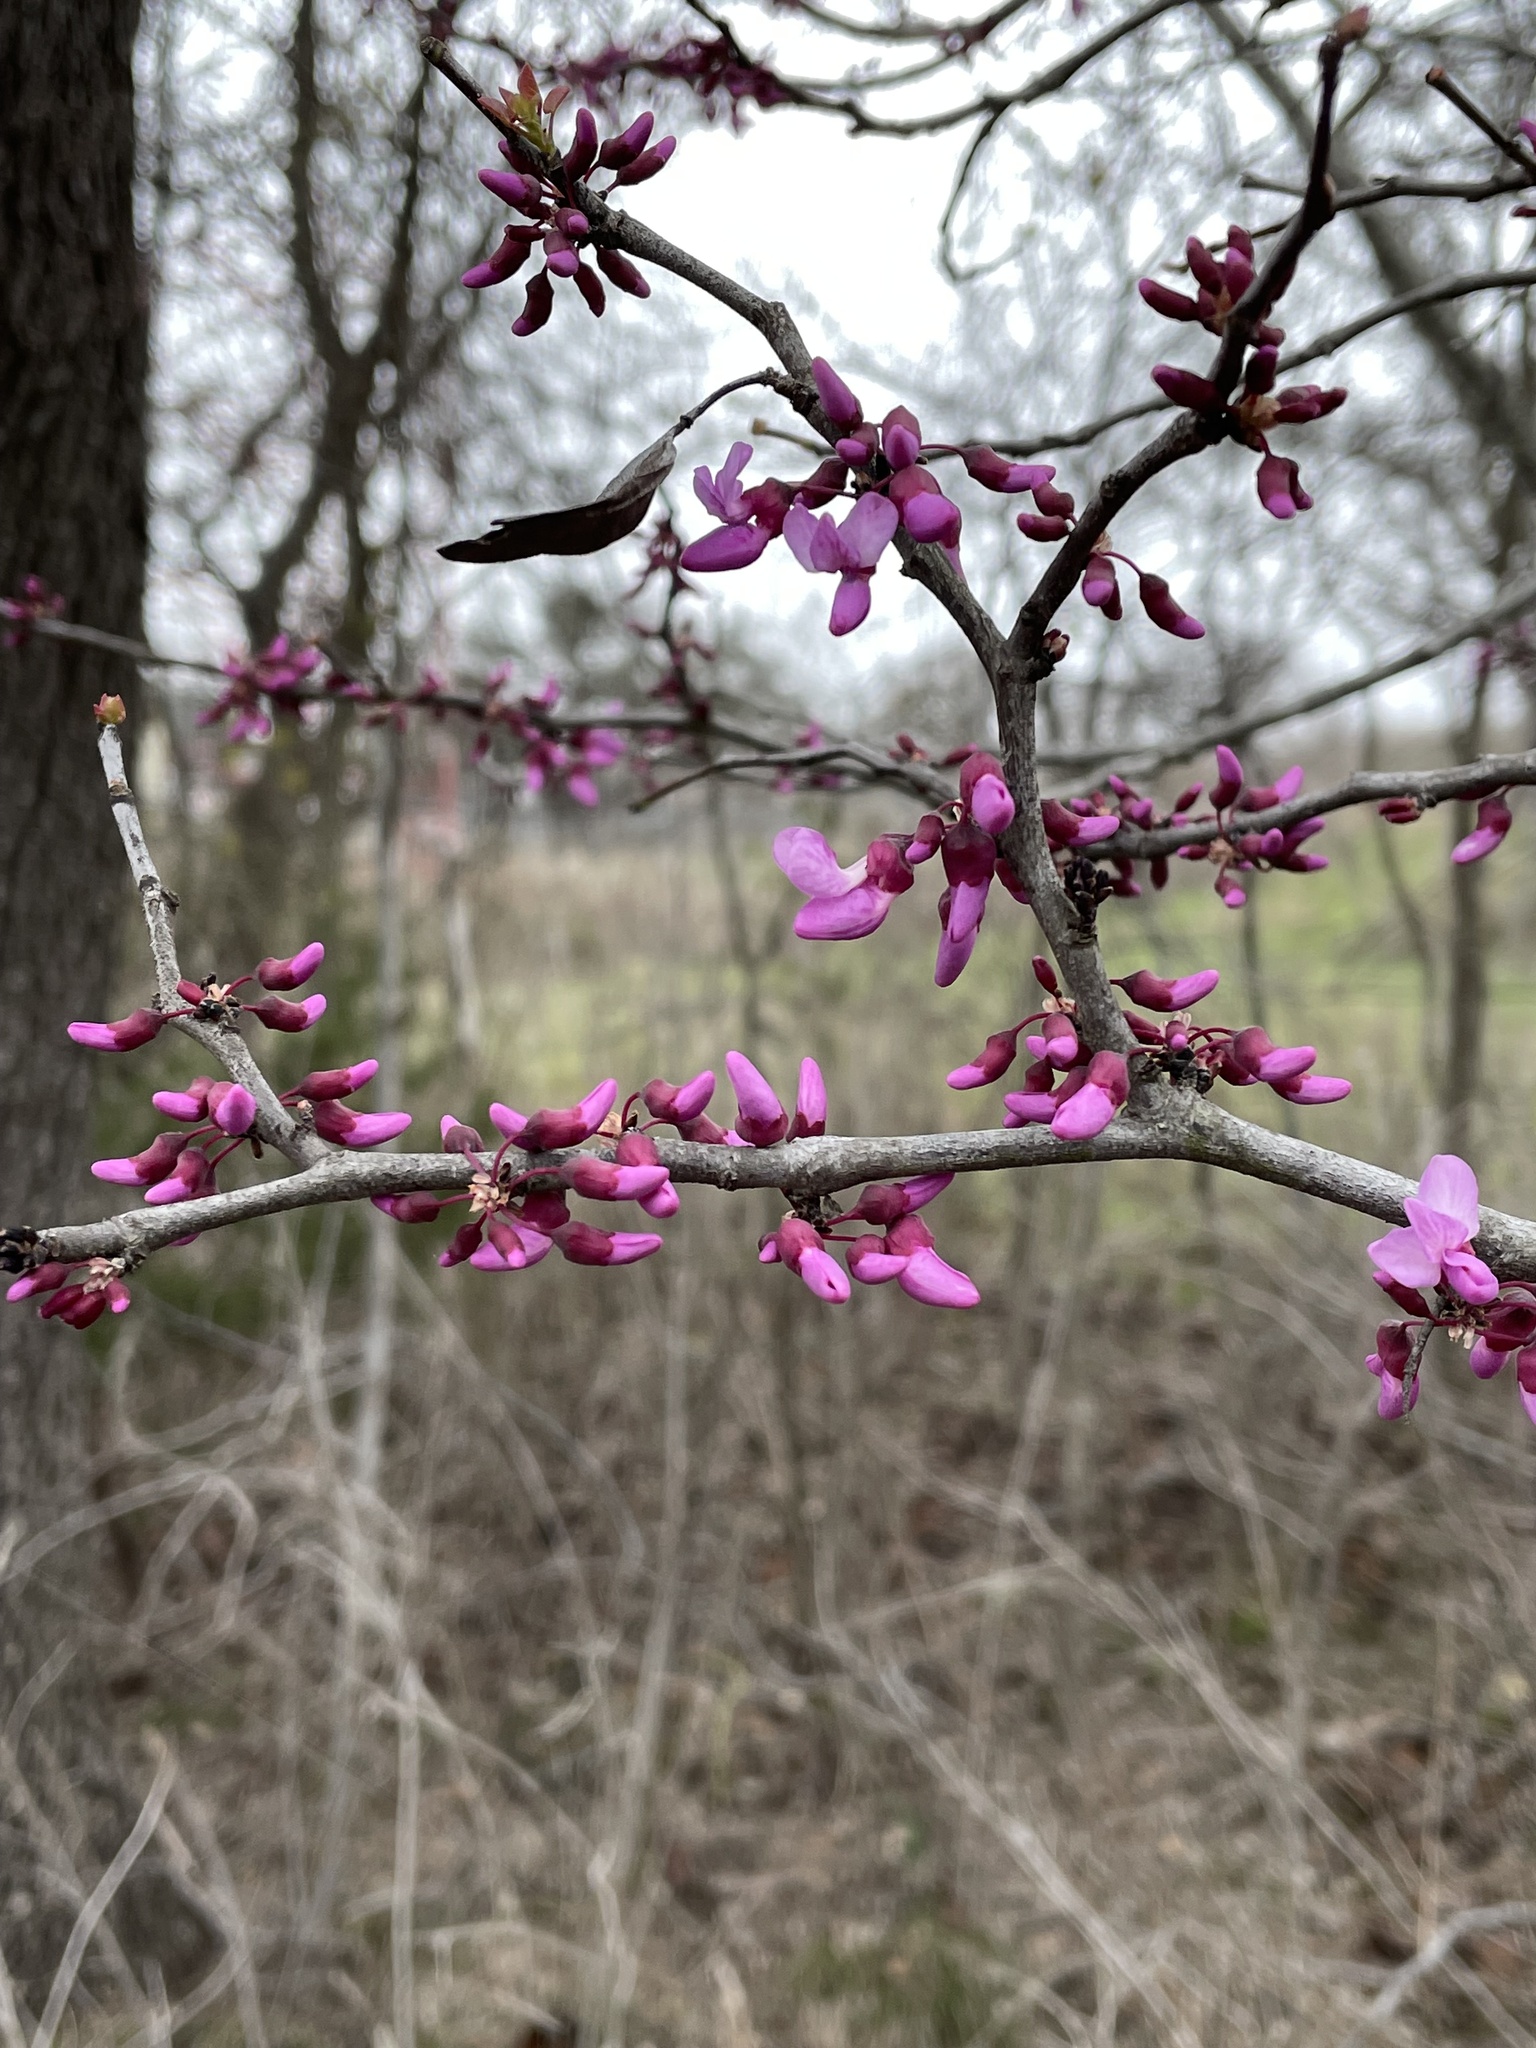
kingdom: Plantae
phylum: Tracheophyta
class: Magnoliopsida
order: Fabales
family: Fabaceae
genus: Cercis
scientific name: Cercis canadensis
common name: Eastern redbud
